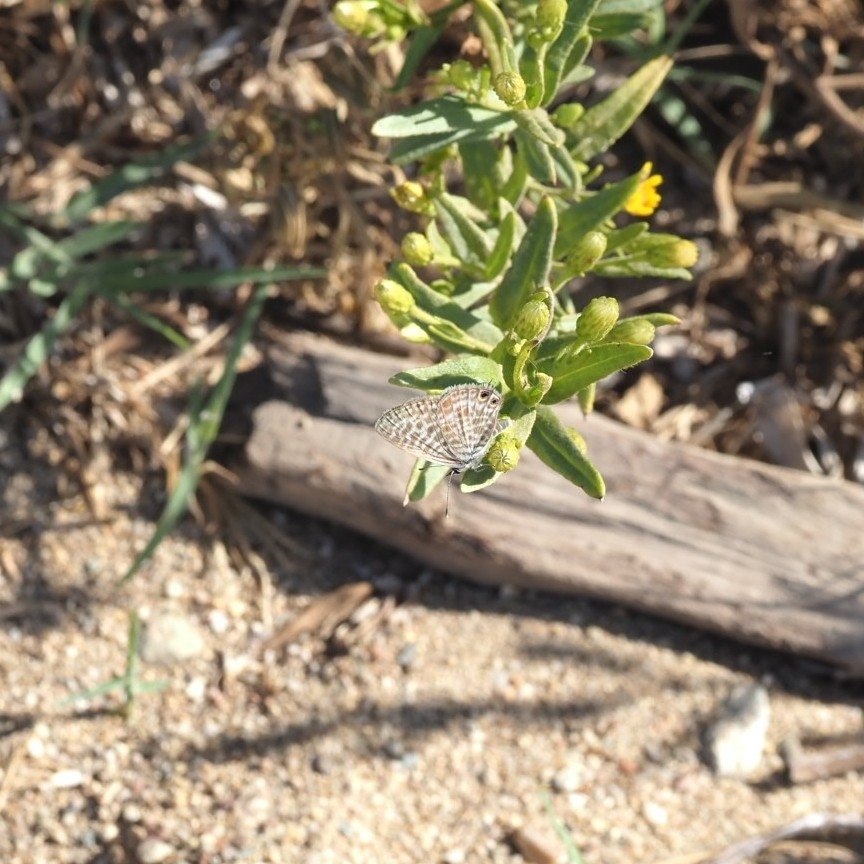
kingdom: Animalia
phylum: Arthropoda
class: Insecta
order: Lepidoptera
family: Lycaenidae
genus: Leptotes
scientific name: Leptotes pirithous
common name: Lang's short-tailed blue
